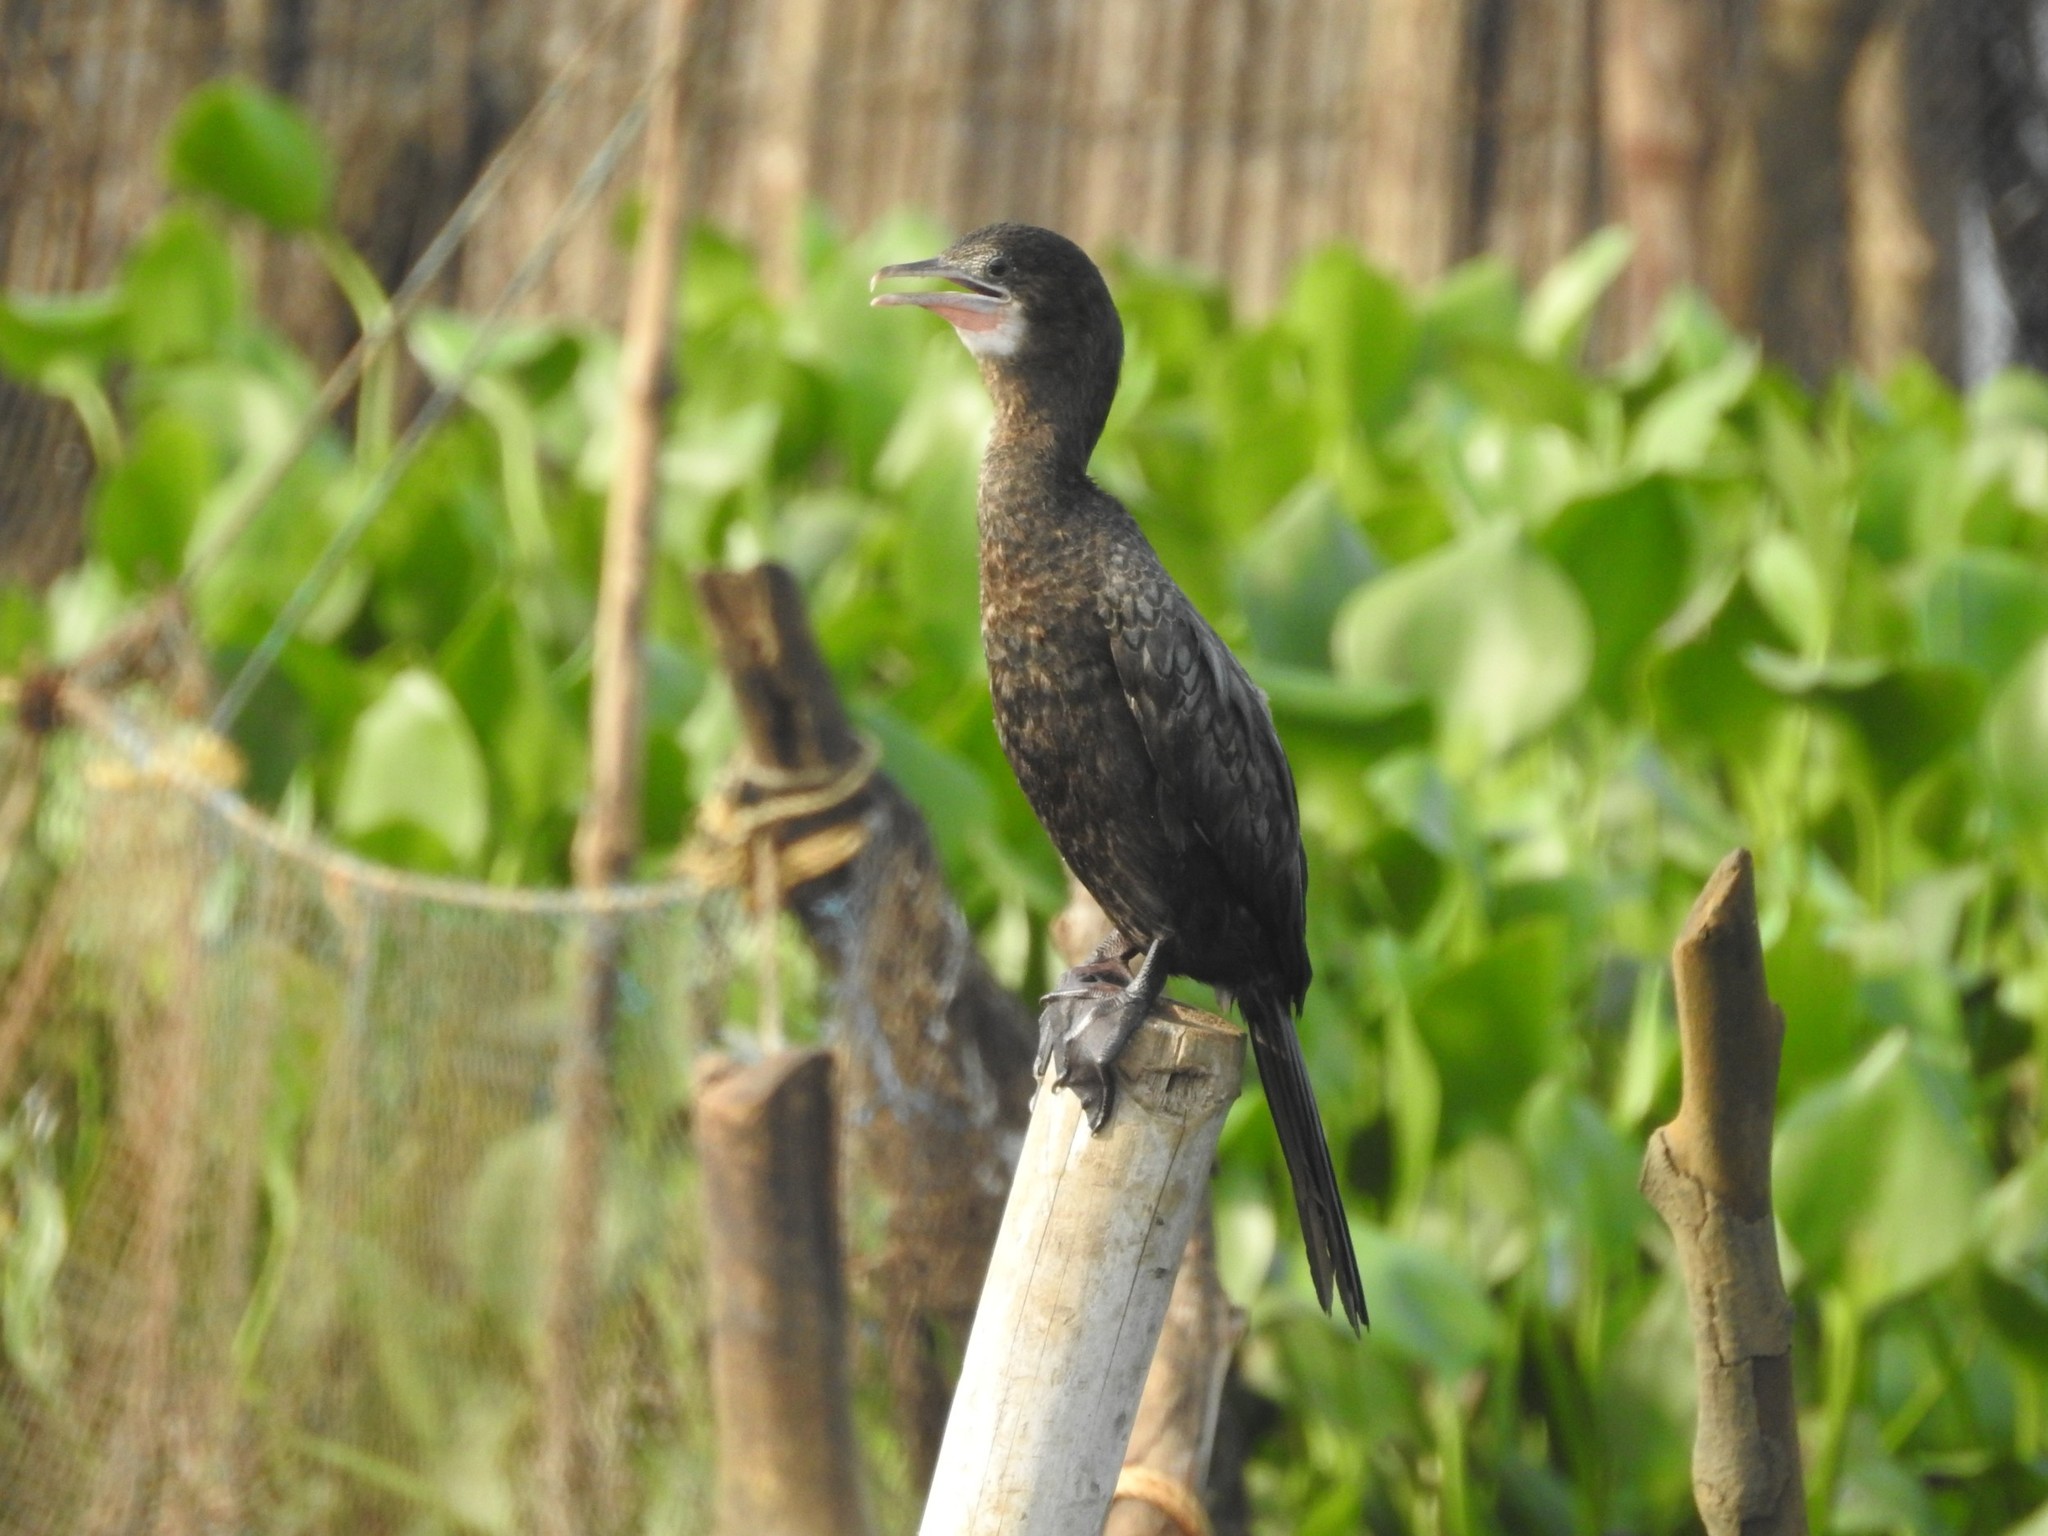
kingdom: Animalia
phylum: Chordata
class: Aves
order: Suliformes
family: Phalacrocoracidae
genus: Microcarbo
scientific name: Microcarbo niger
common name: Little cormorant
